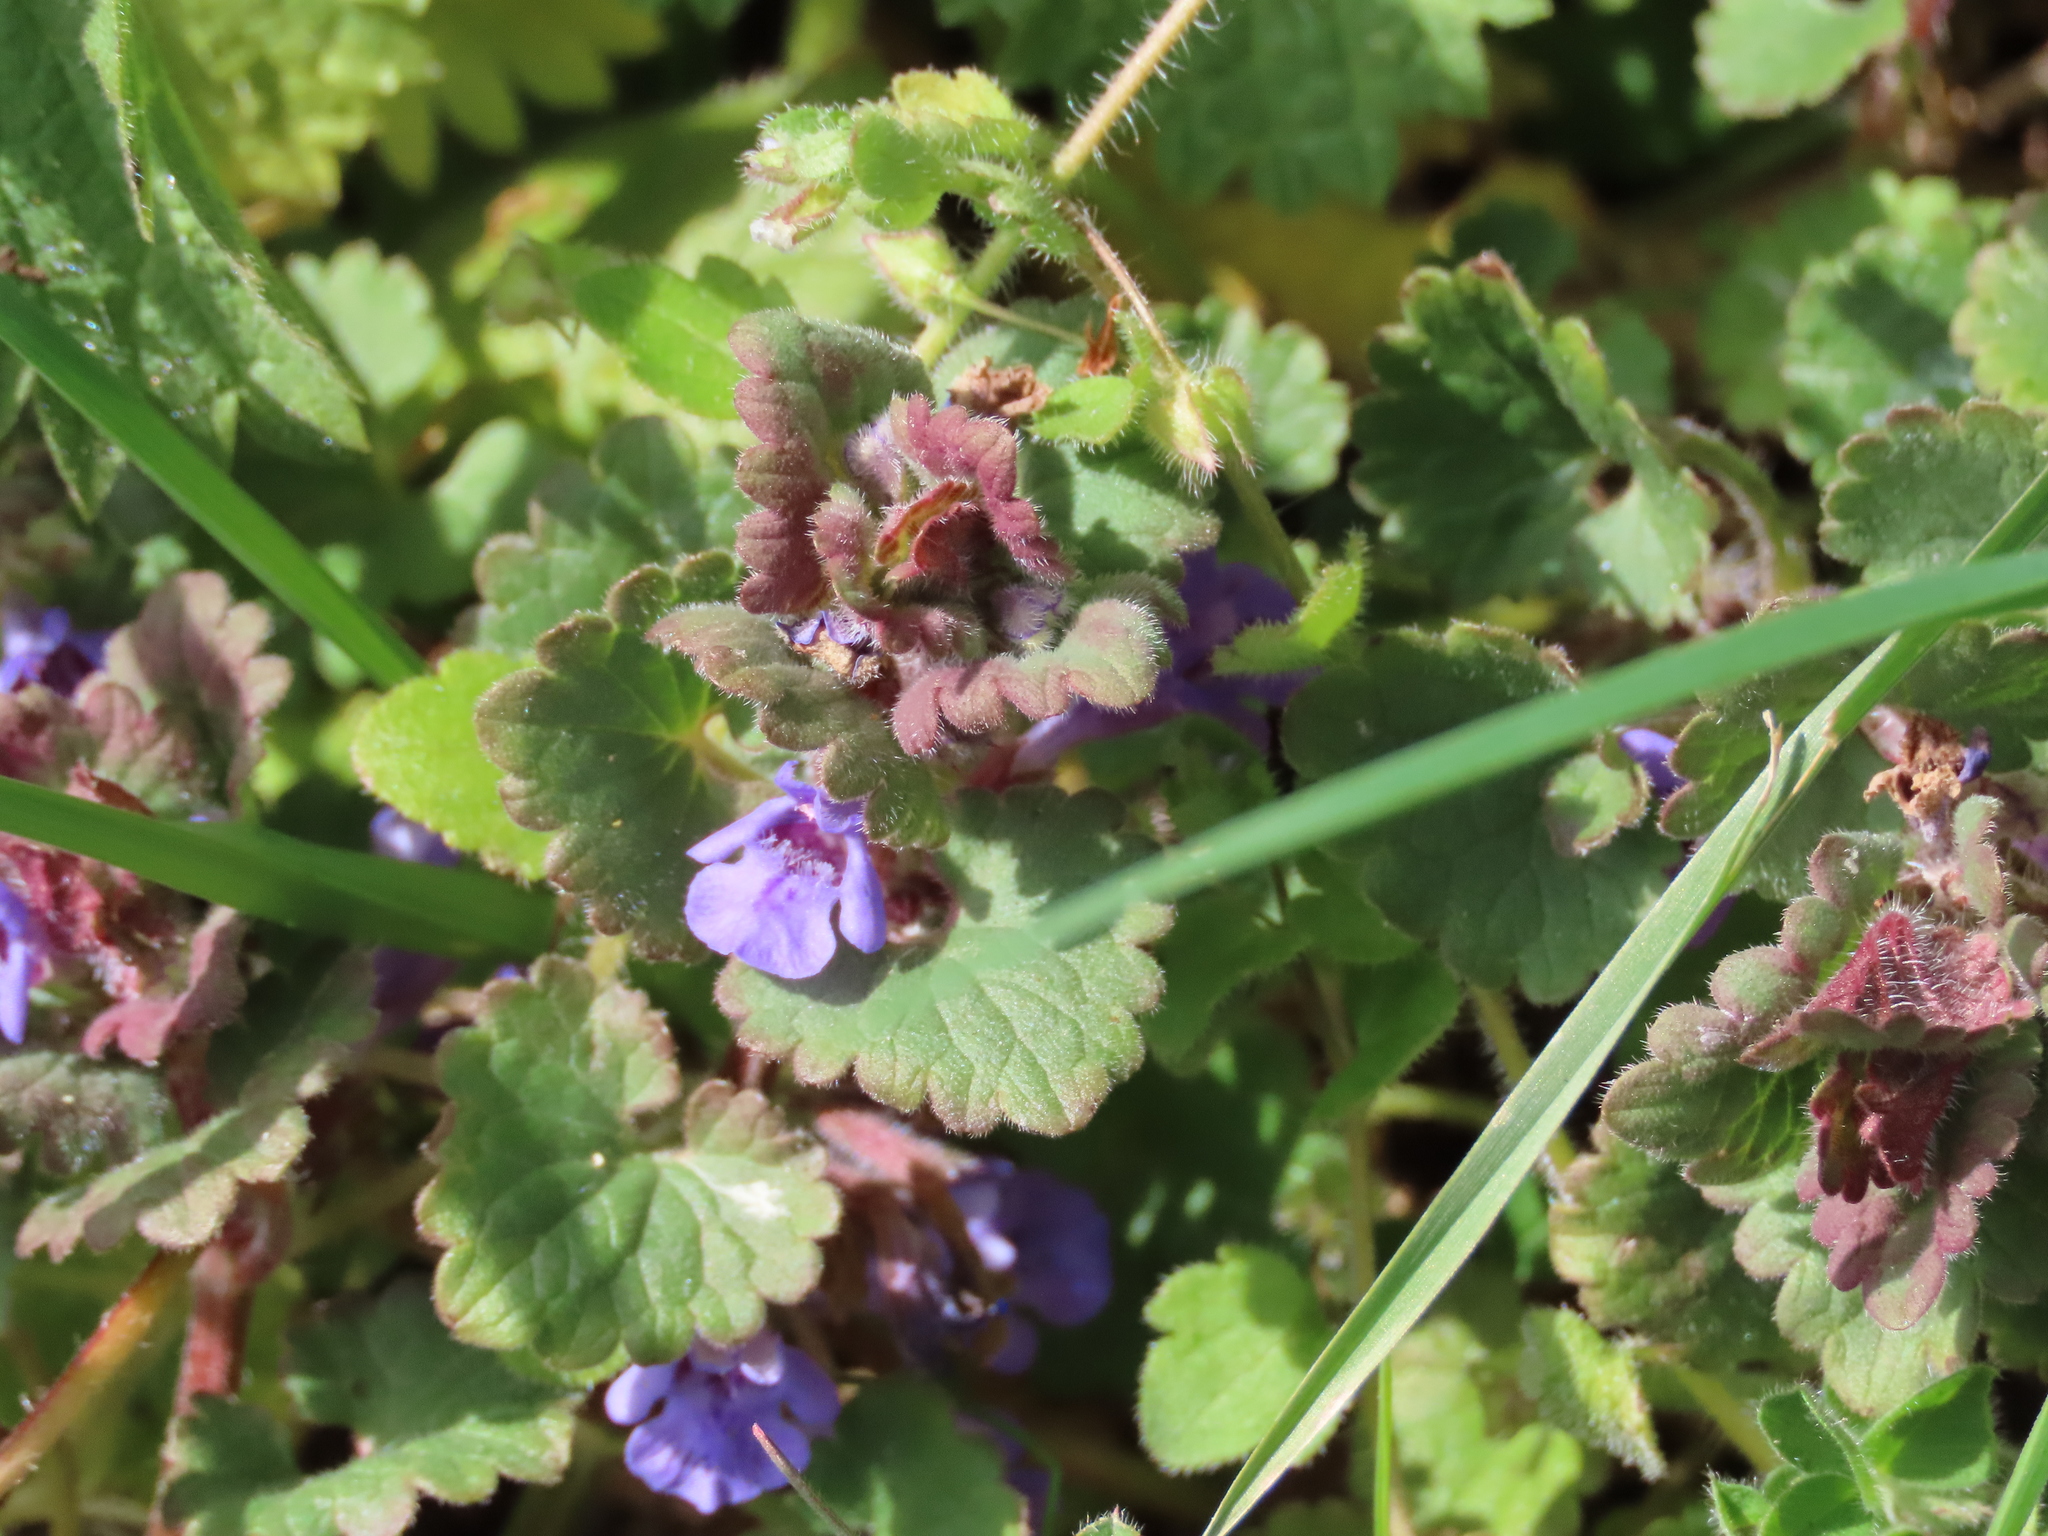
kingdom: Plantae
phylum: Tracheophyta
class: Magnoliopsida
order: Lamiales
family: Lamiaceae
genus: Glechoma
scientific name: Glechoma hederacea
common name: Ground ivy
